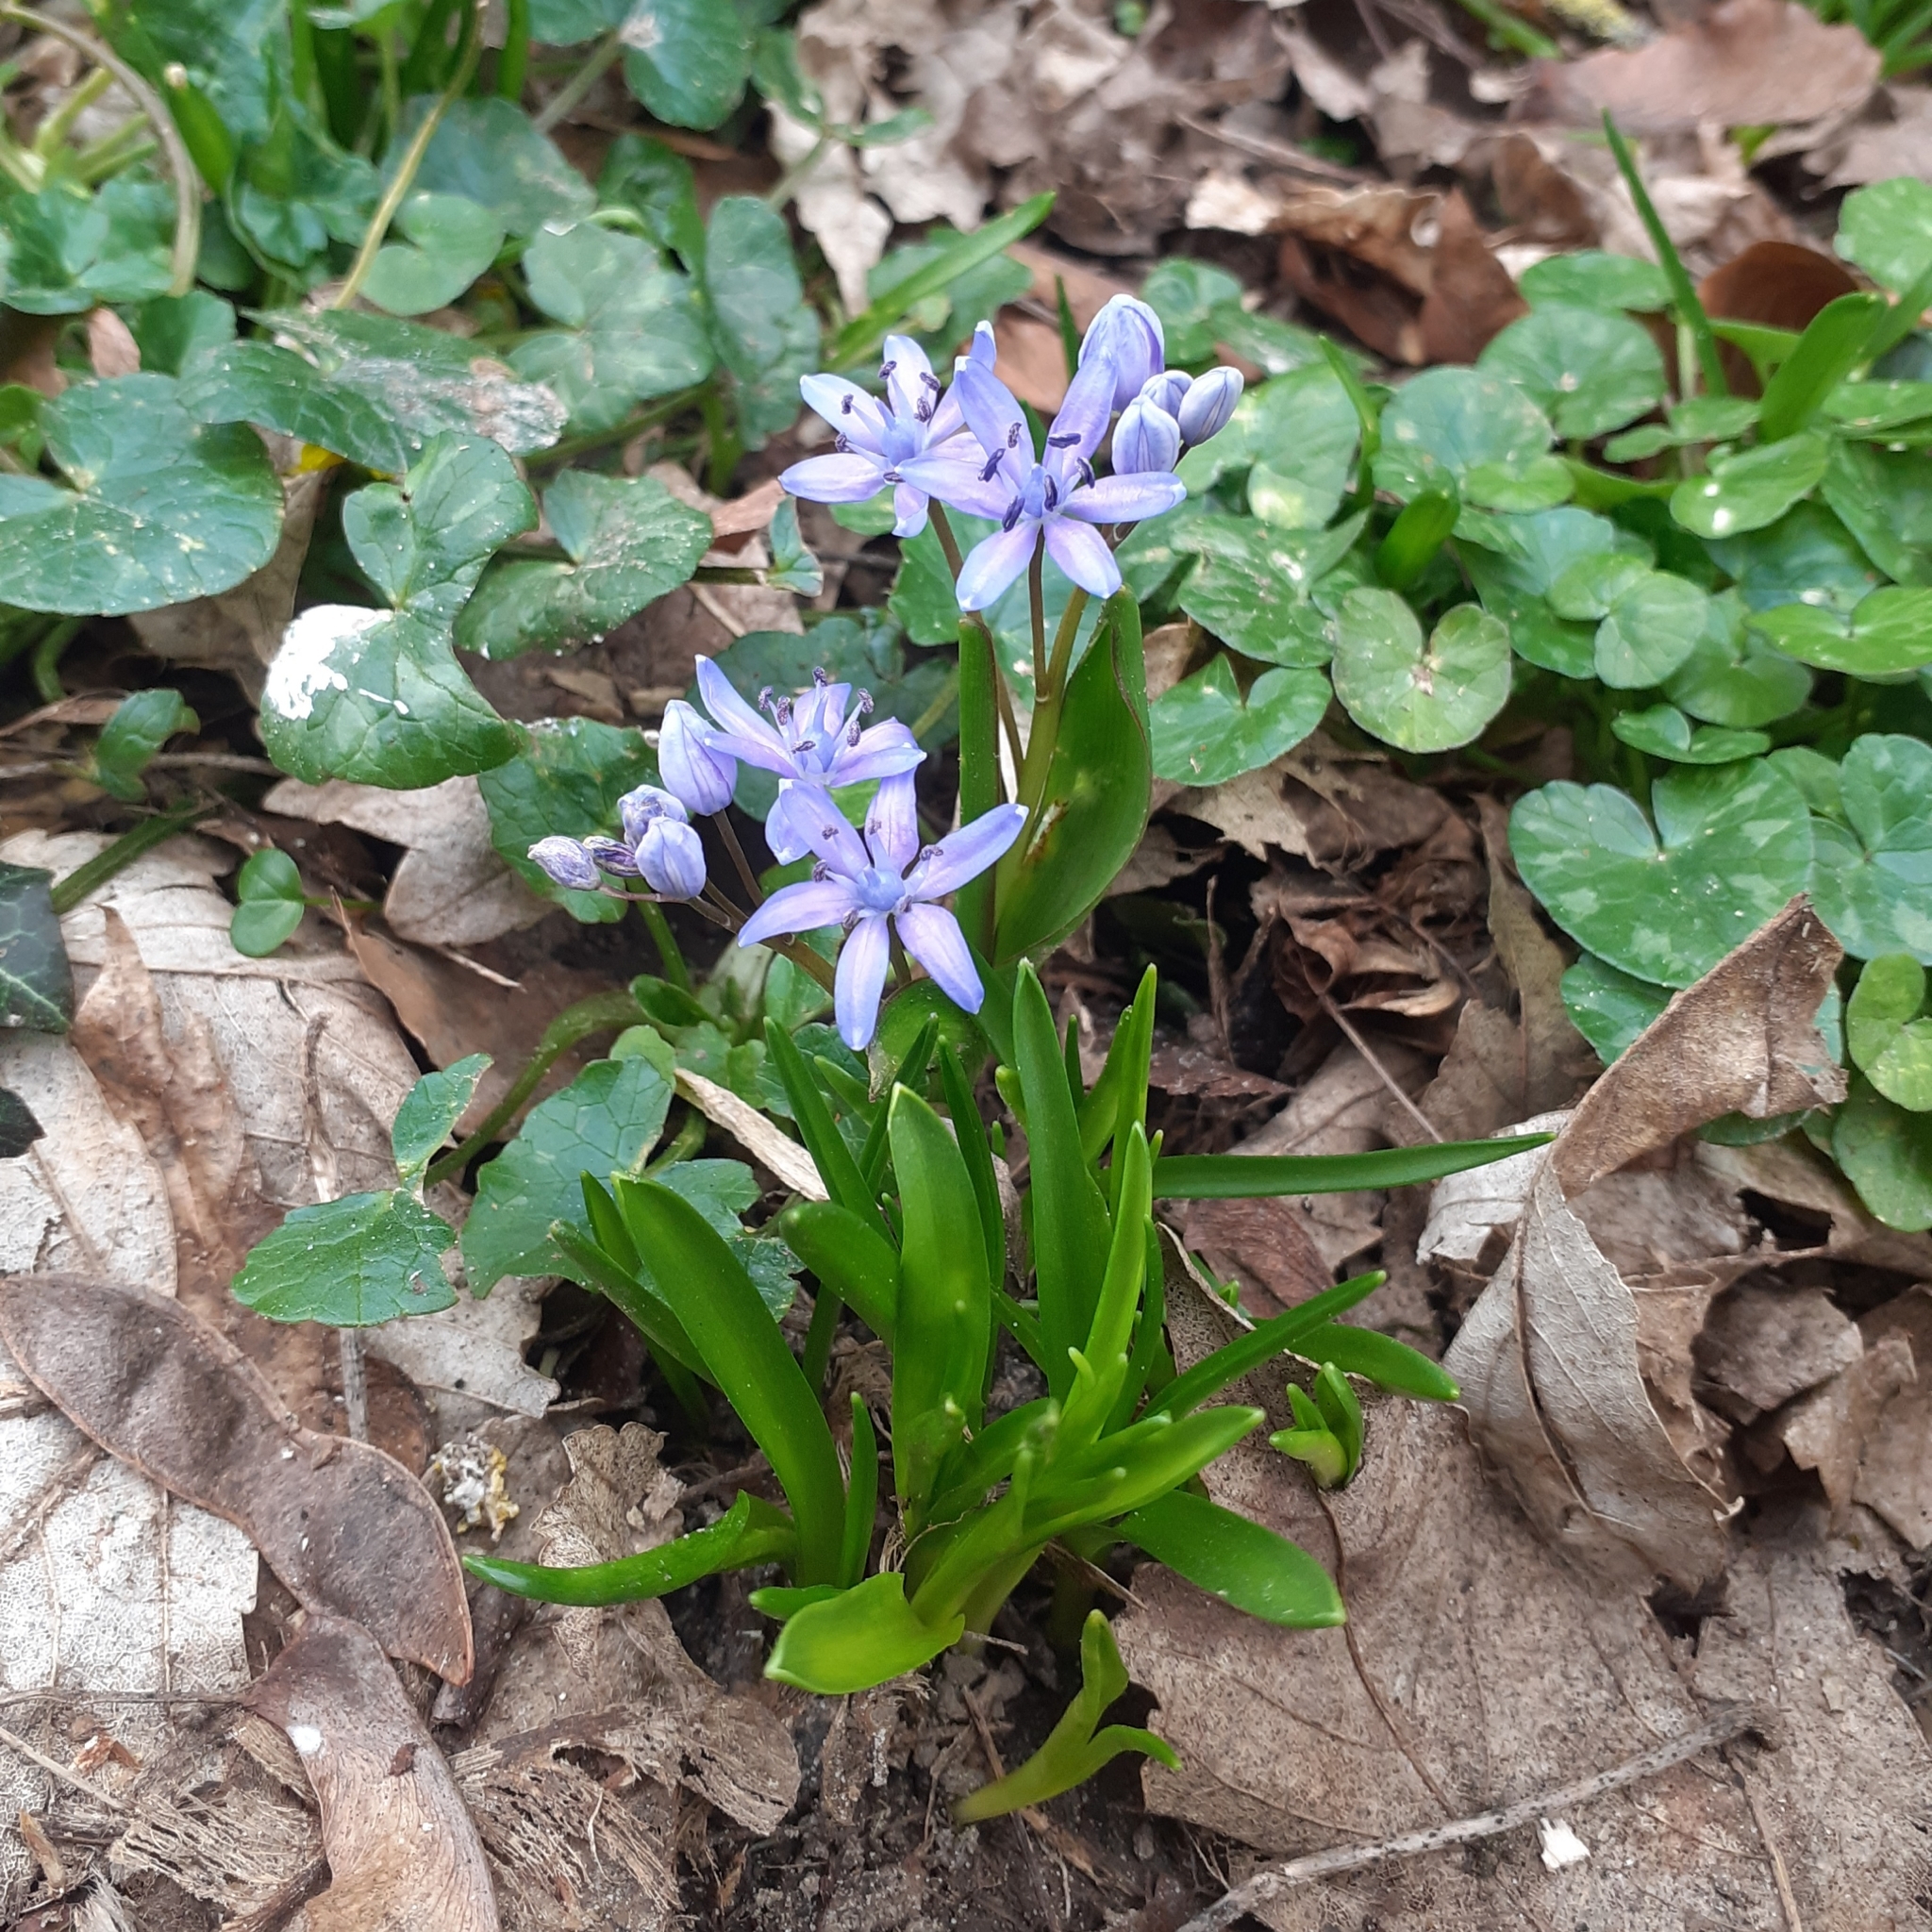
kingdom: Plantae
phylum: Tracheophyta
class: Liliopsida
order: Asparagales
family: Asparagaceae
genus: Scilla
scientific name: Scilla bifolia
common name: Alpine squill
